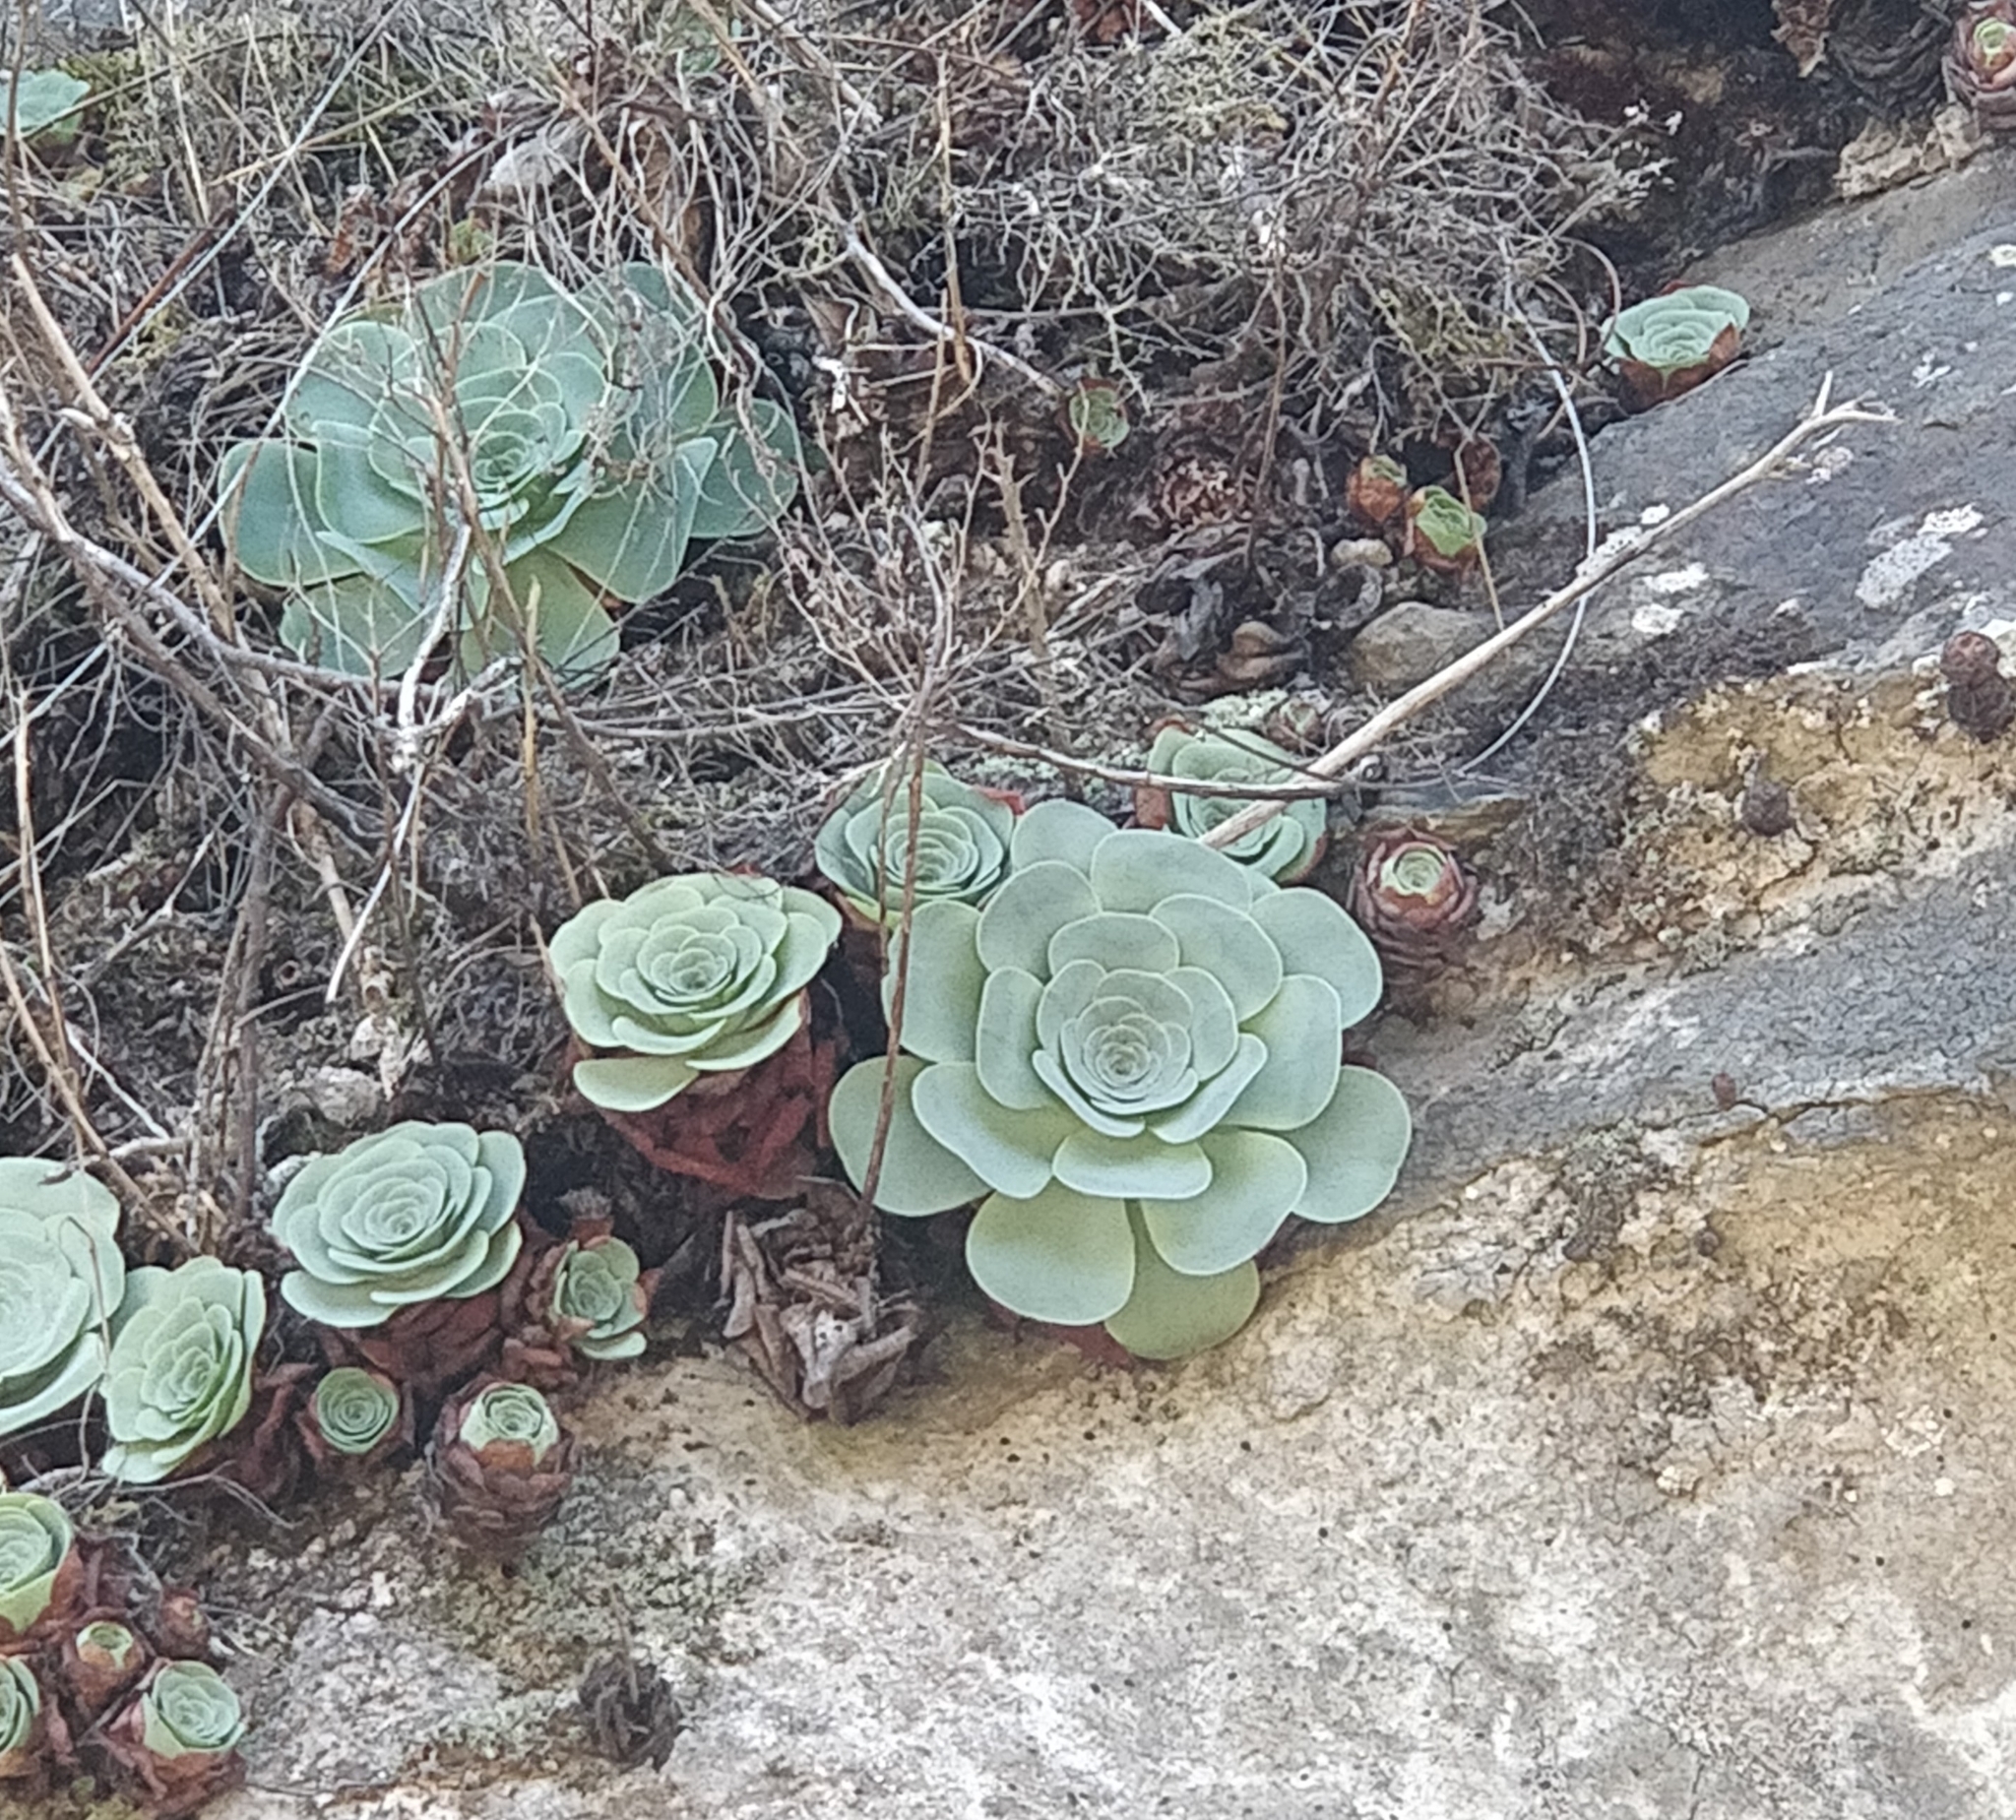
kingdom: Plantae
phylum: Tracheophyta
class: Magnoliopsida
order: Saxifragales
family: Crassulaceae
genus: Aeonium
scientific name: Aeonium diplocyclum
